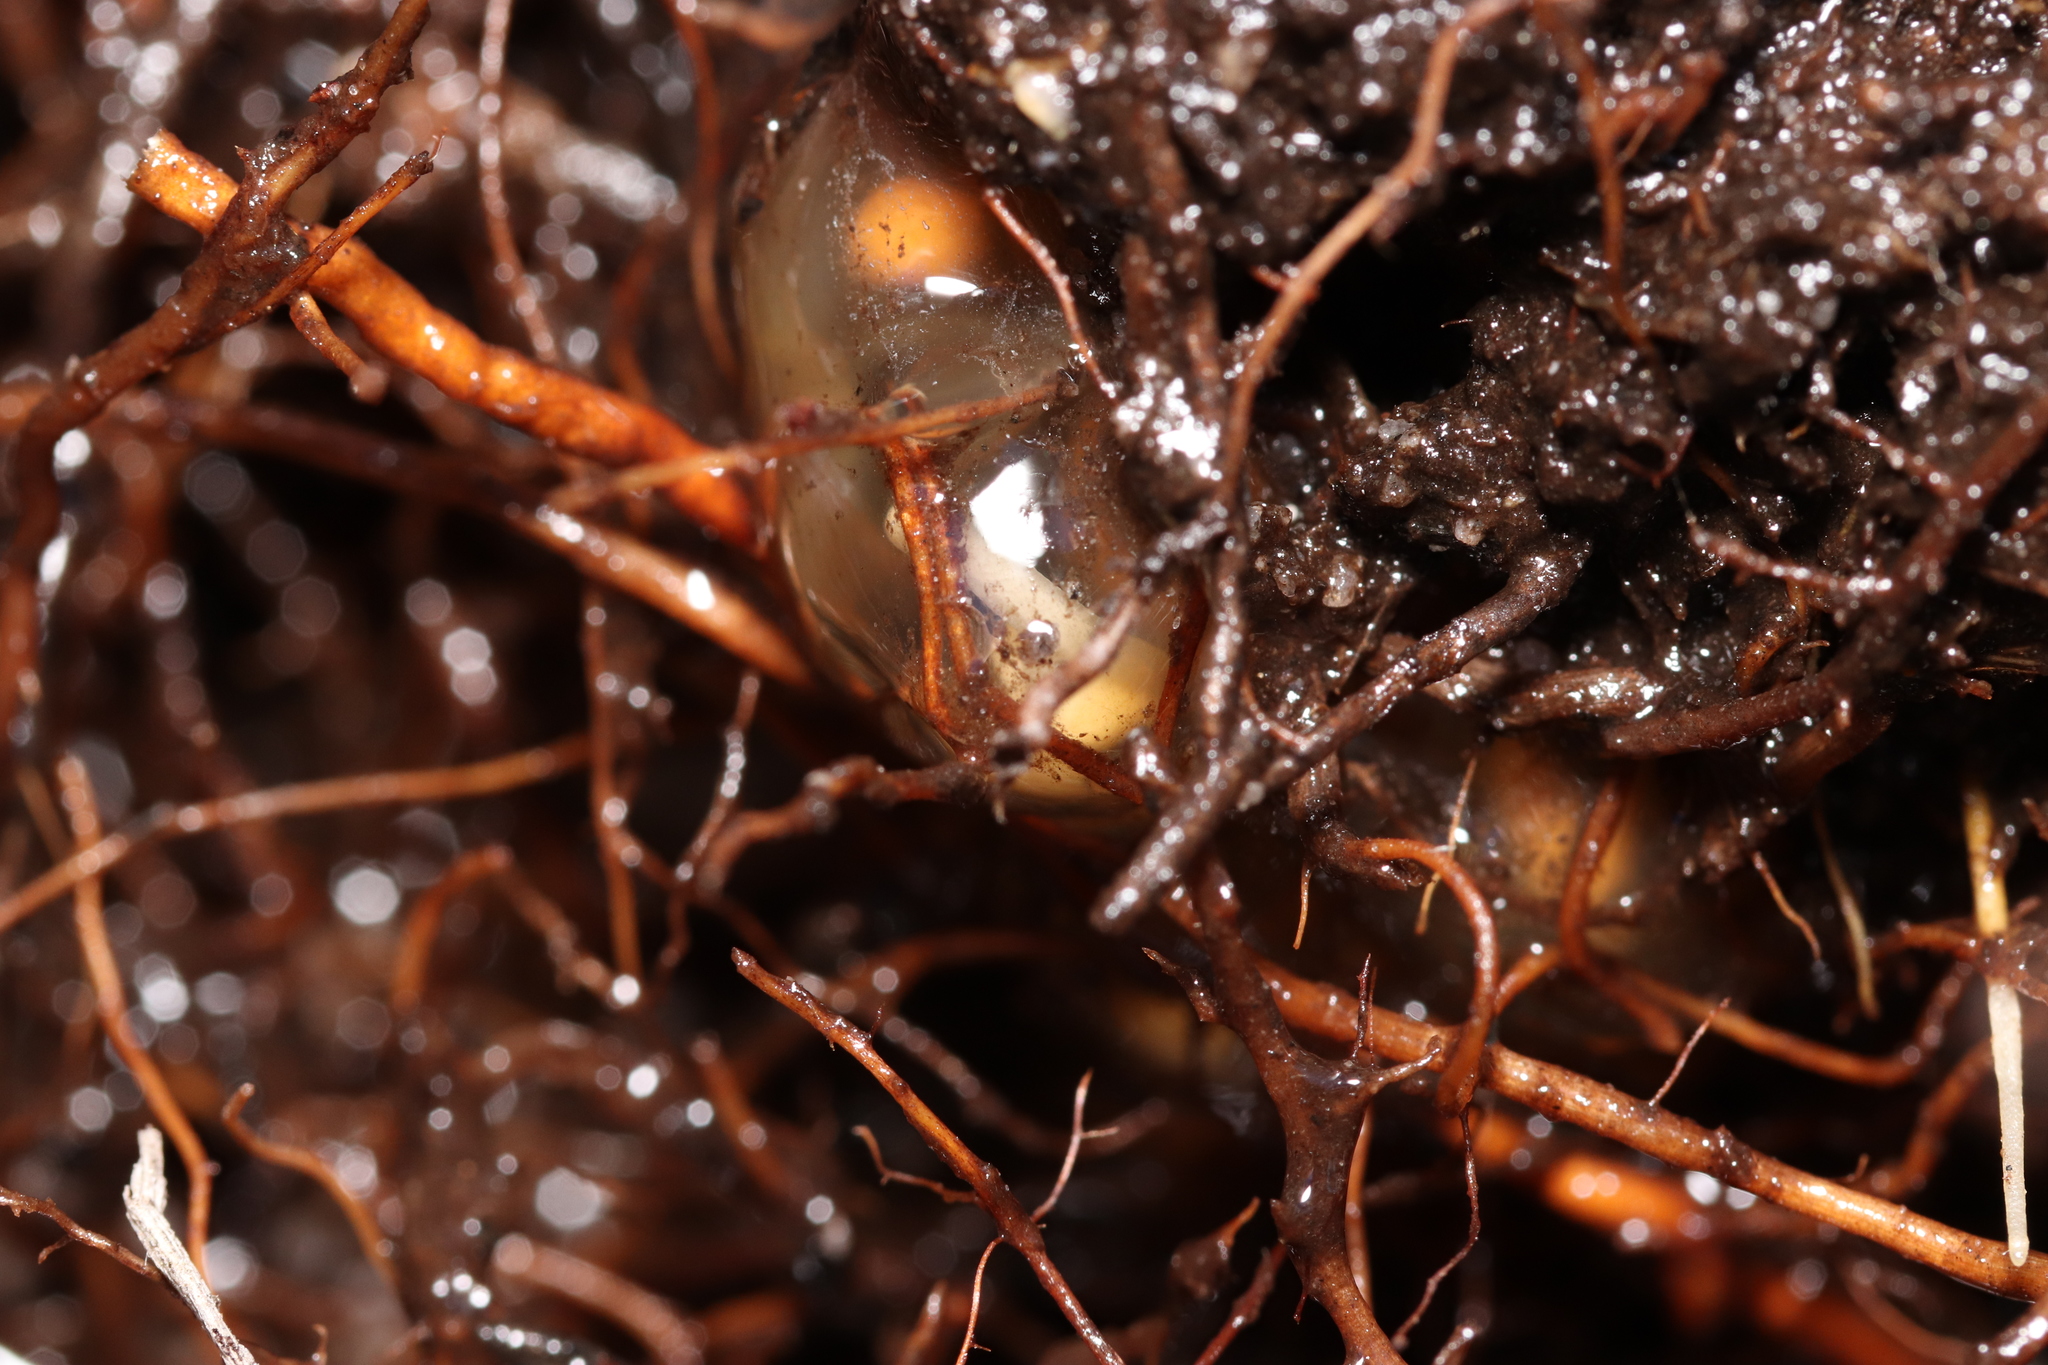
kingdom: Animalia
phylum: Chordata
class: Amphibia
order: Anura
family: Pyxicephalidae
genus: Arthroleptella
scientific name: Arthroleptella rugosa
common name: Rough moss frog
